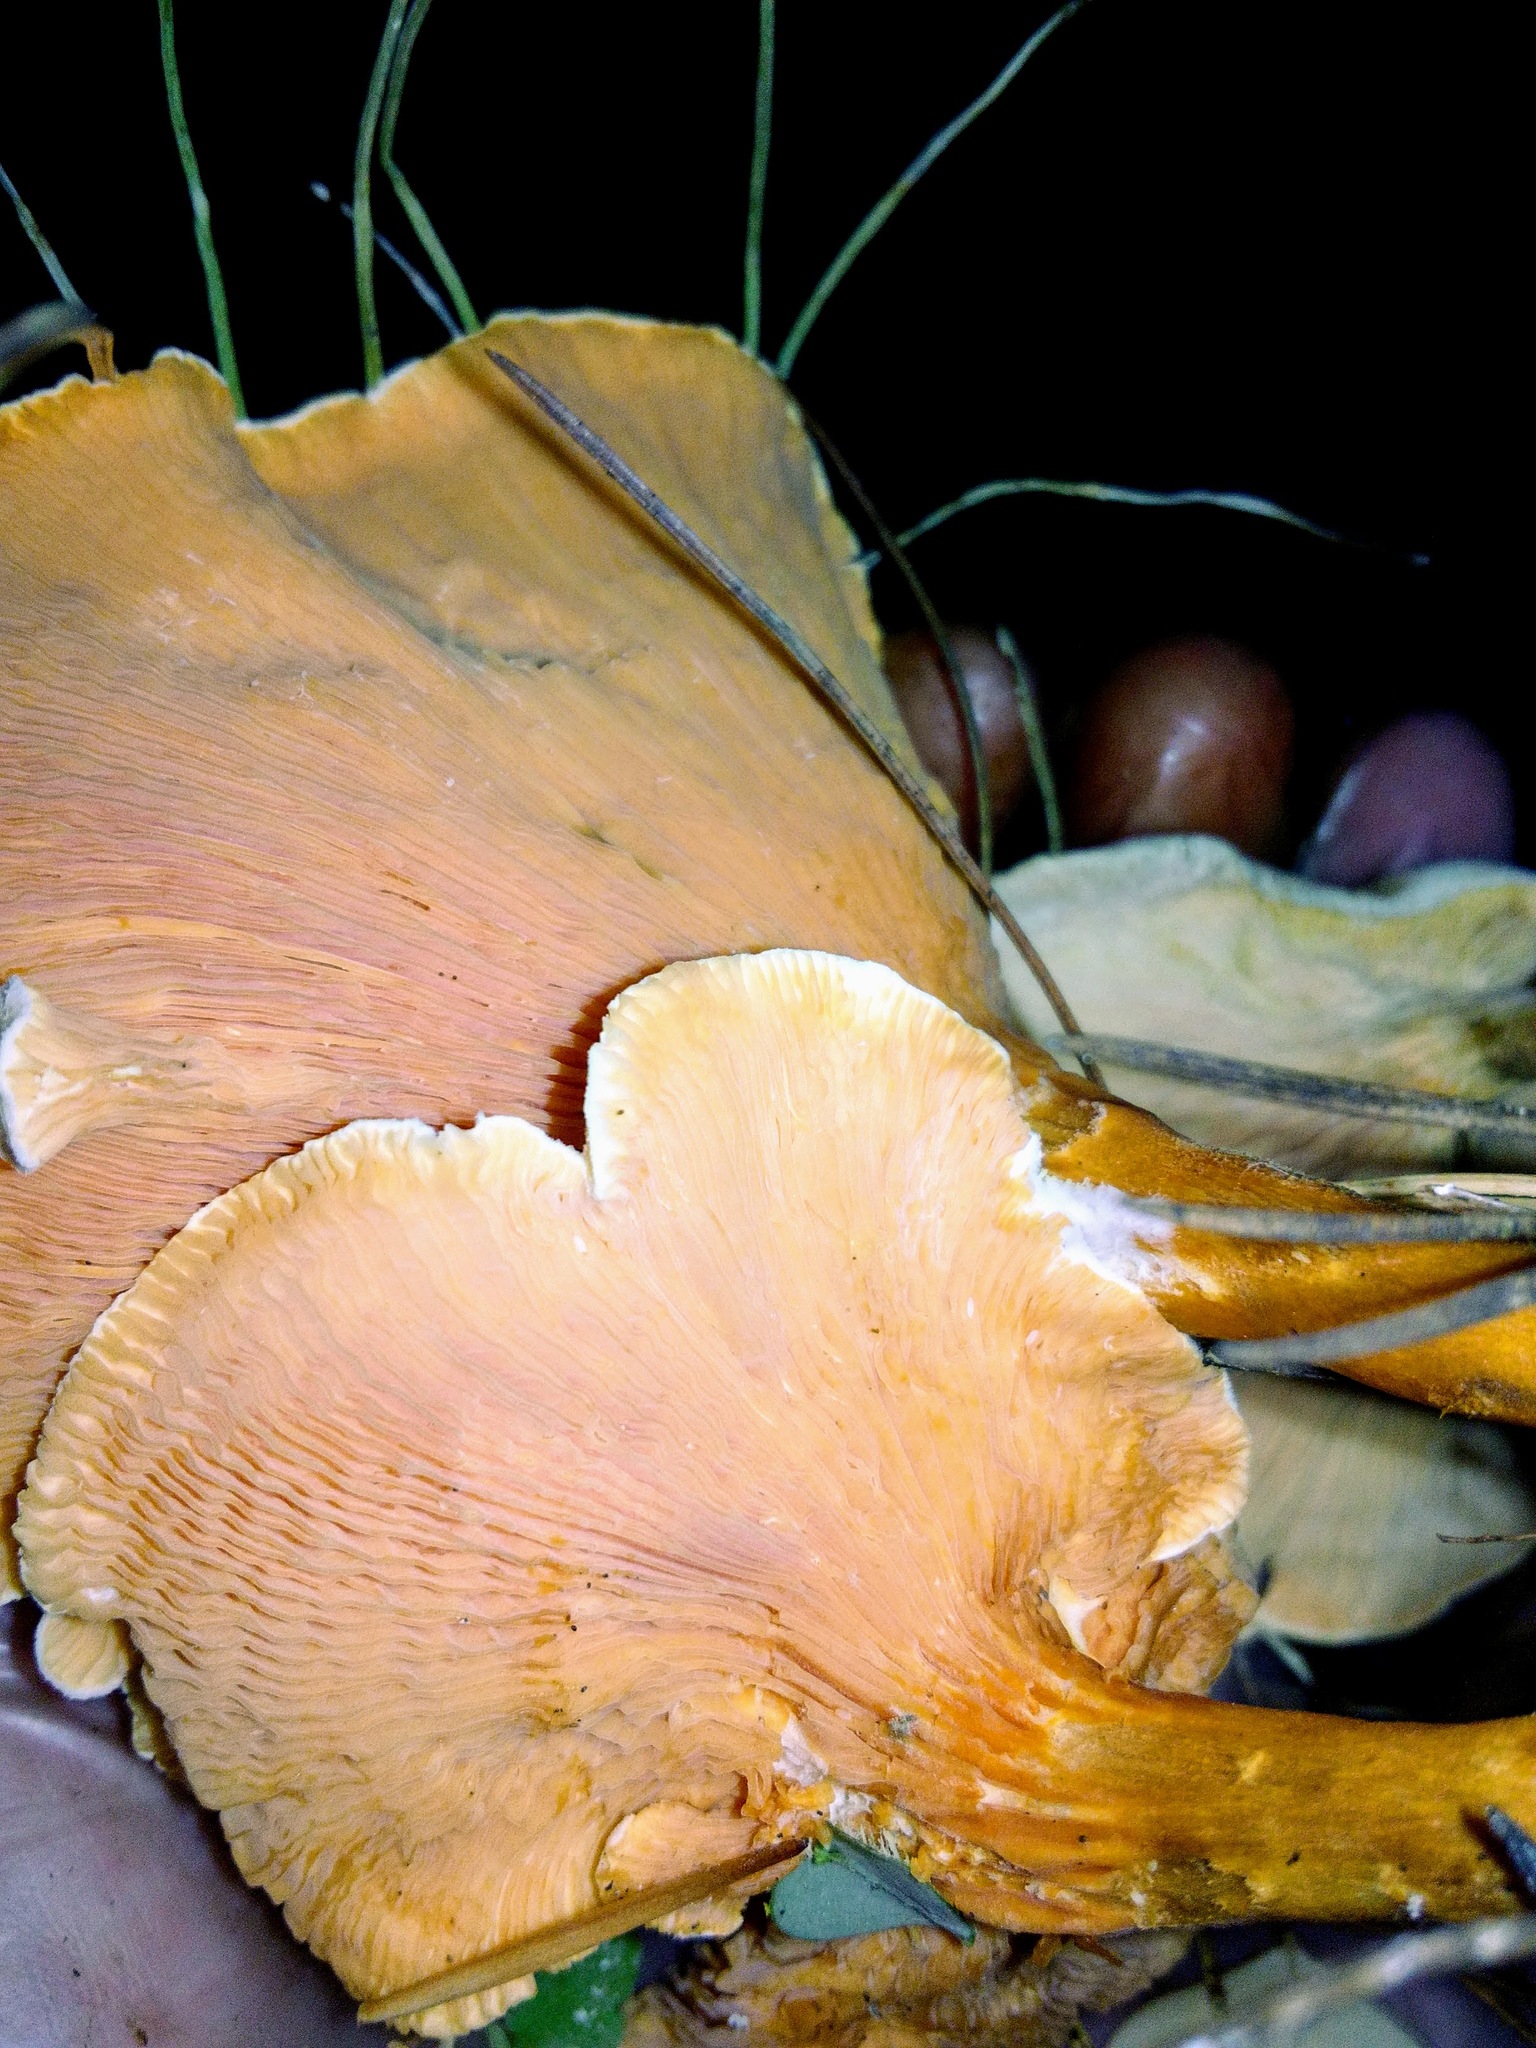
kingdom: Fungi
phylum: Basidiomycota
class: Agaricomycetes
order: Boletales
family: Hygrophoropsidaceae
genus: Hygrophoropsis
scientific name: Hygrophoropsis aurantiaca
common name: False chanterelle
